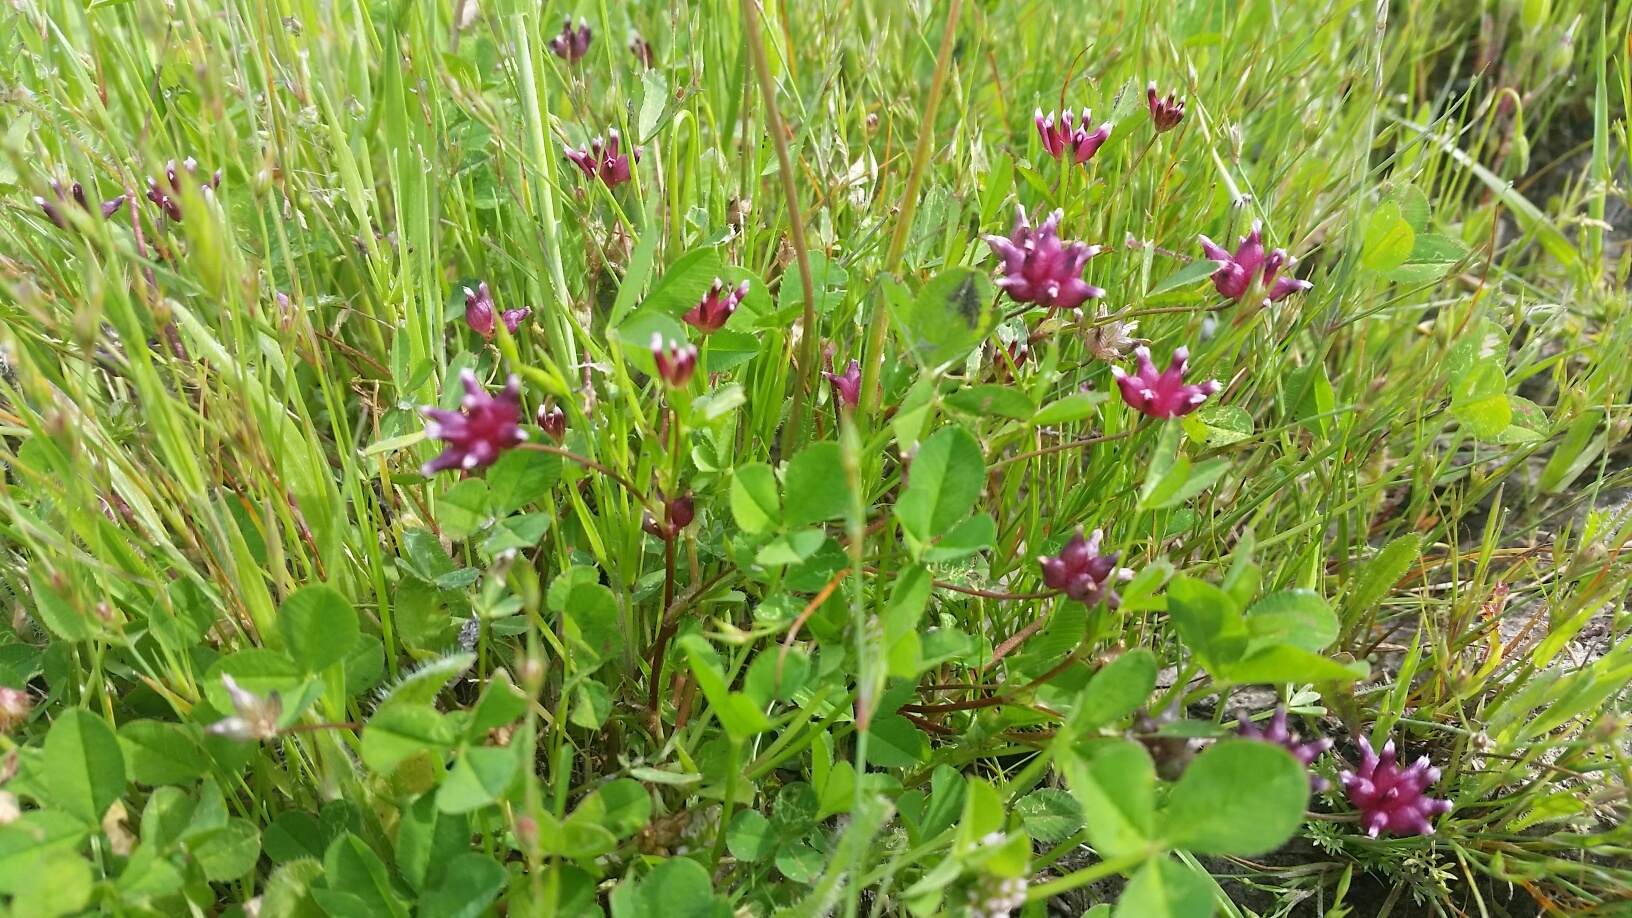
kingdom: Plantae
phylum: Tracheophyta
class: Magnoliopsida
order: Fabales
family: Fabaceae
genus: Trifolium
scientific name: Trifolium depauperatum
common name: Poverty clover
